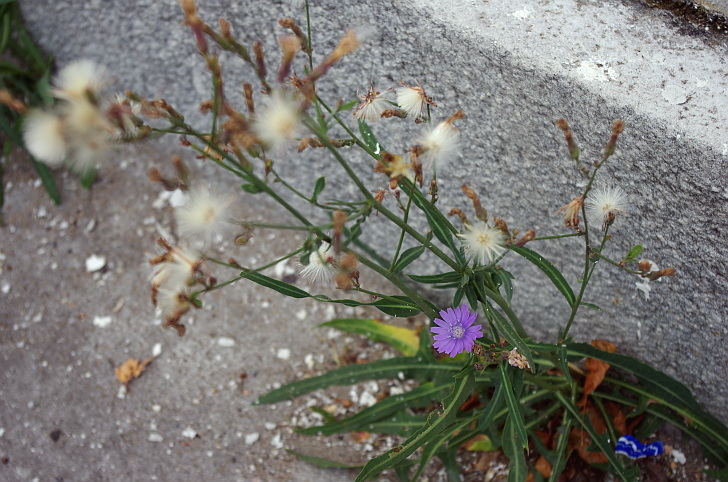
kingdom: Plantae
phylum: Tracheophyta
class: Magnoliopsida
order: Asterales
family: Asteraceae
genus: Lactuca
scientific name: Lactuca tatarica
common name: Blue lettuce
